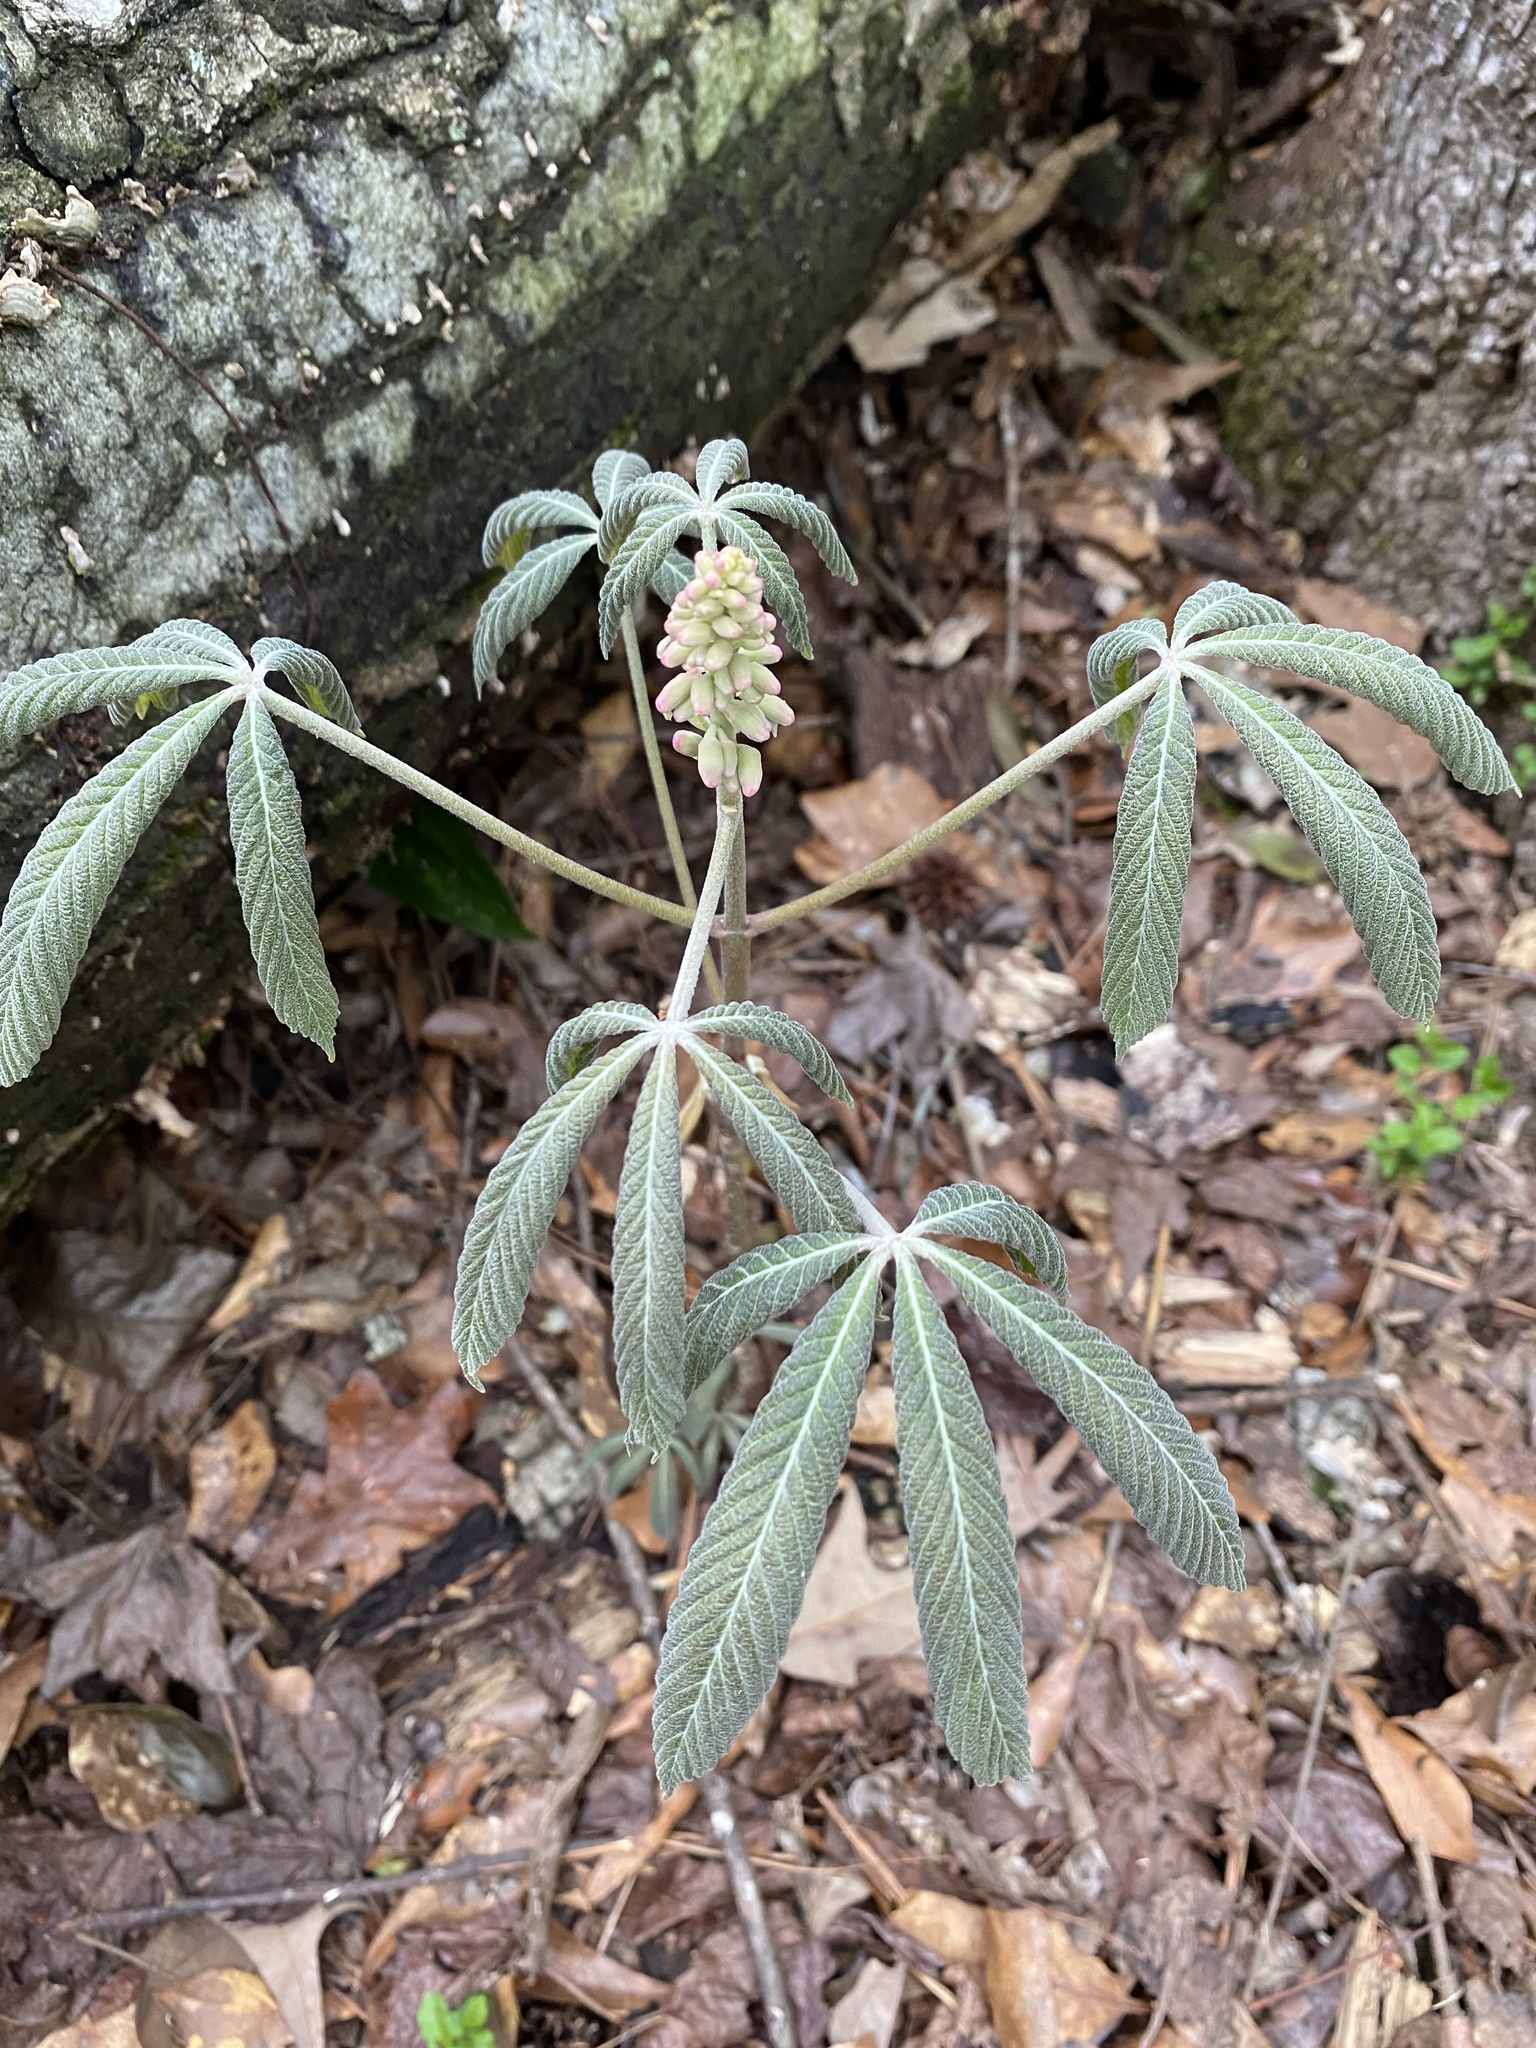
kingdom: Plantae
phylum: Tracheophyta
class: Magnoliopsida
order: Sapindales
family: Sapindaceae
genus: Aesculus
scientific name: Aesculus pavia
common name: Red buckeye
